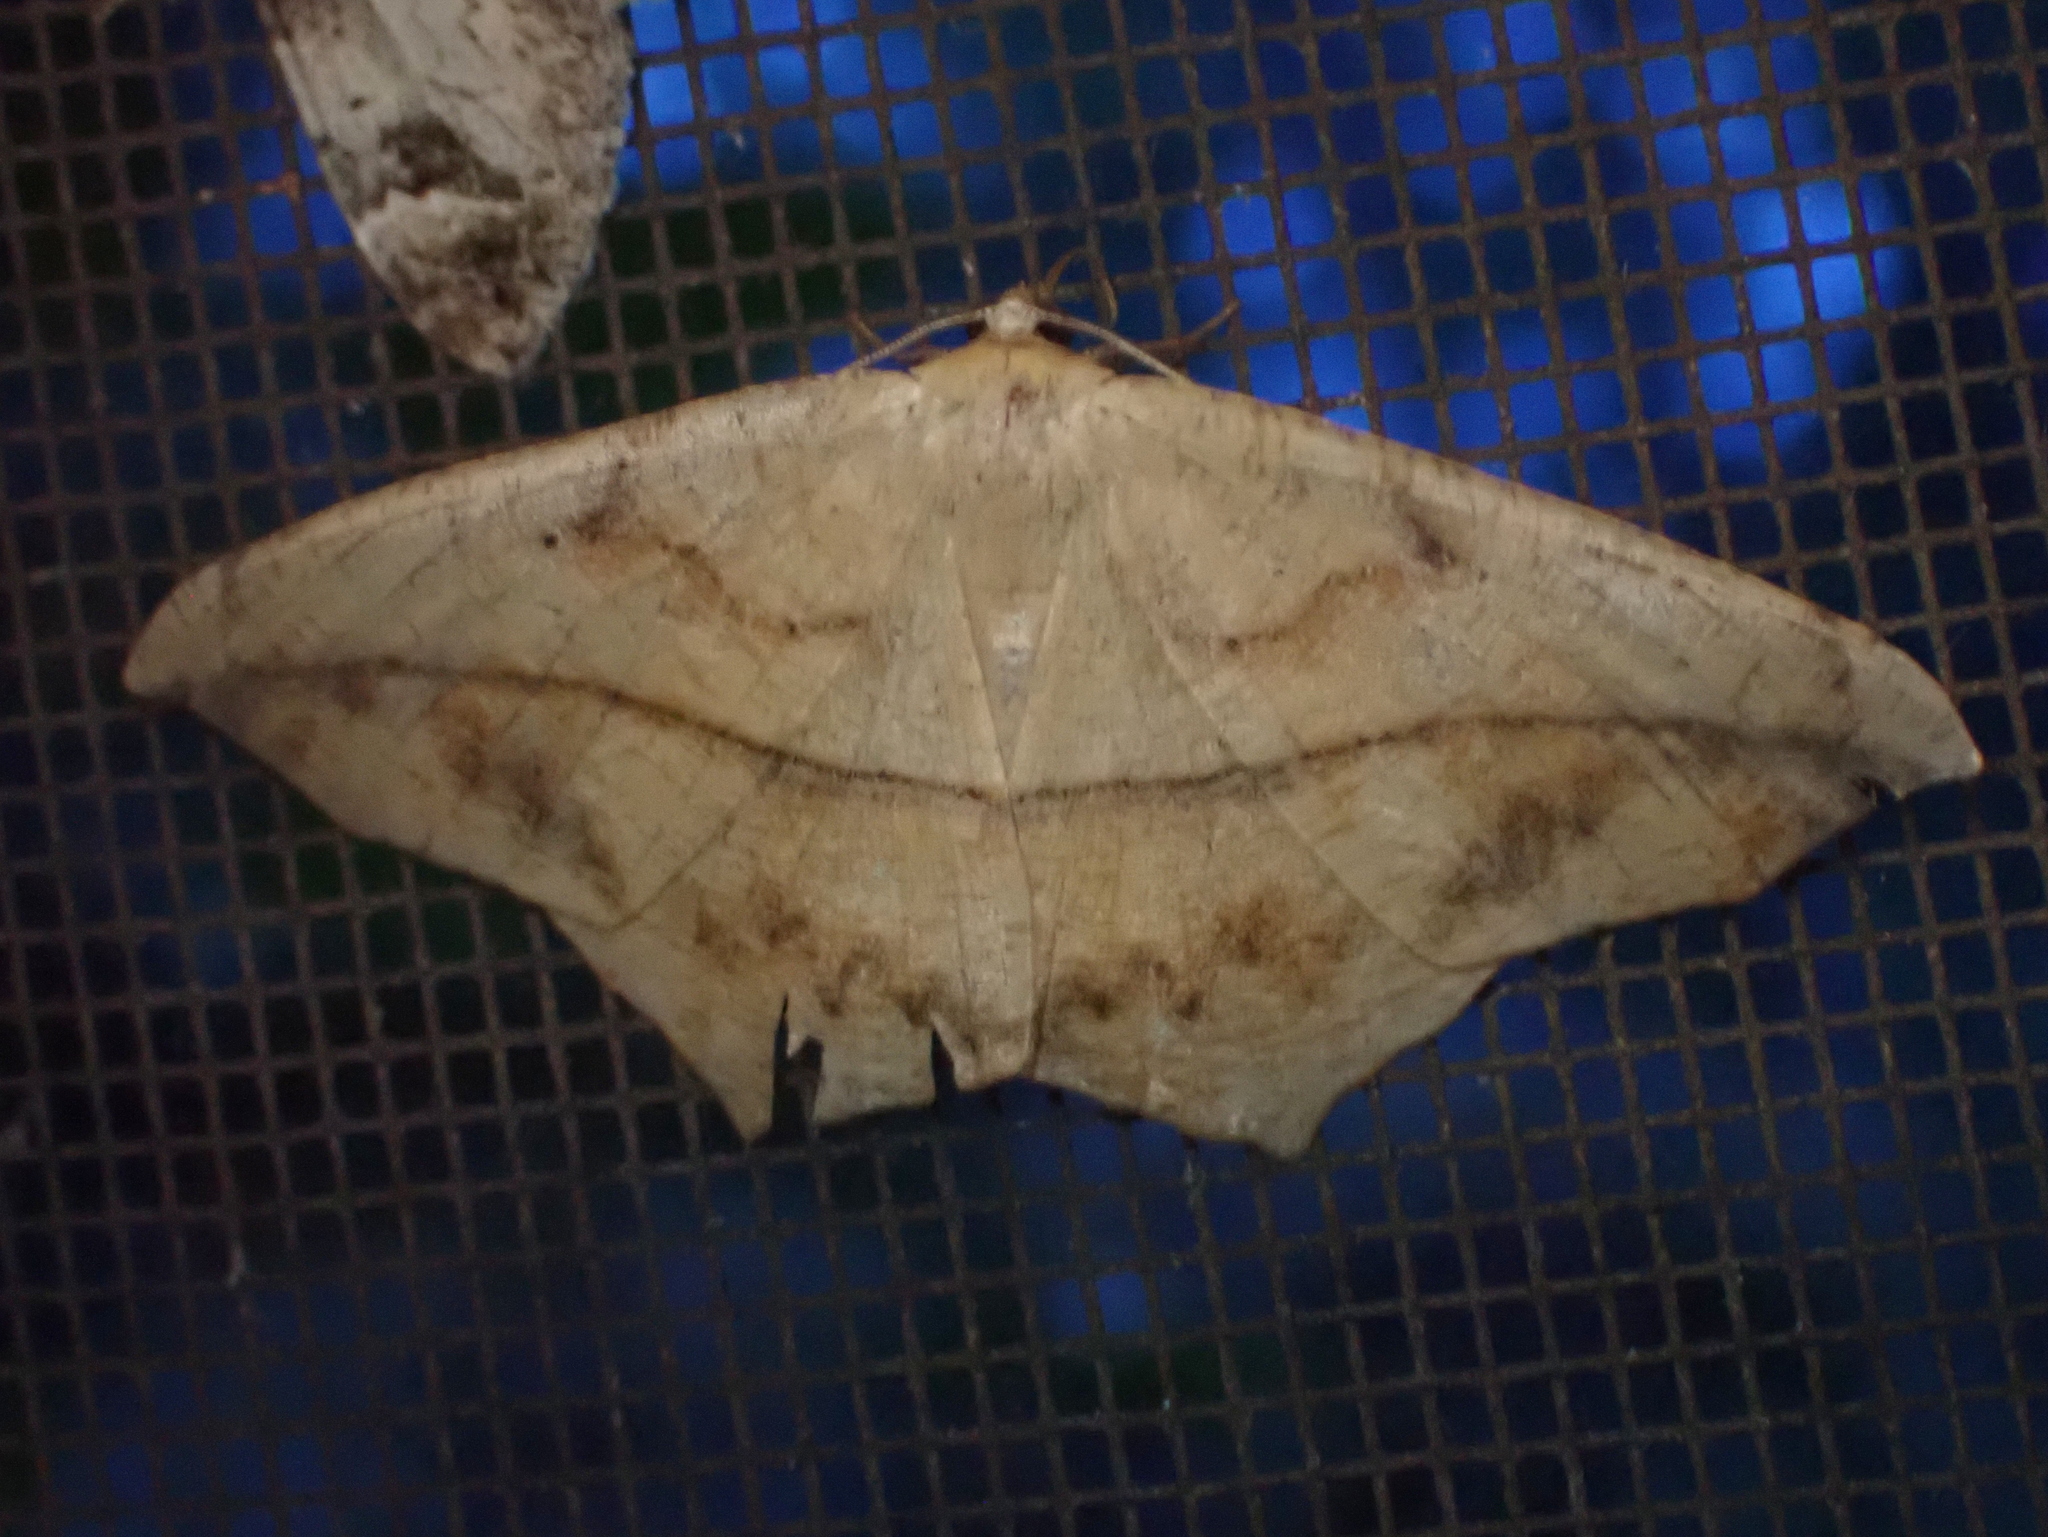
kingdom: Animalia
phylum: Arthropoda
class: Insecta
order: Lepidoptera
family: Geometridae
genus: Prochoerodes
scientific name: Prochoerodes lineola
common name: Large maple spanworm
